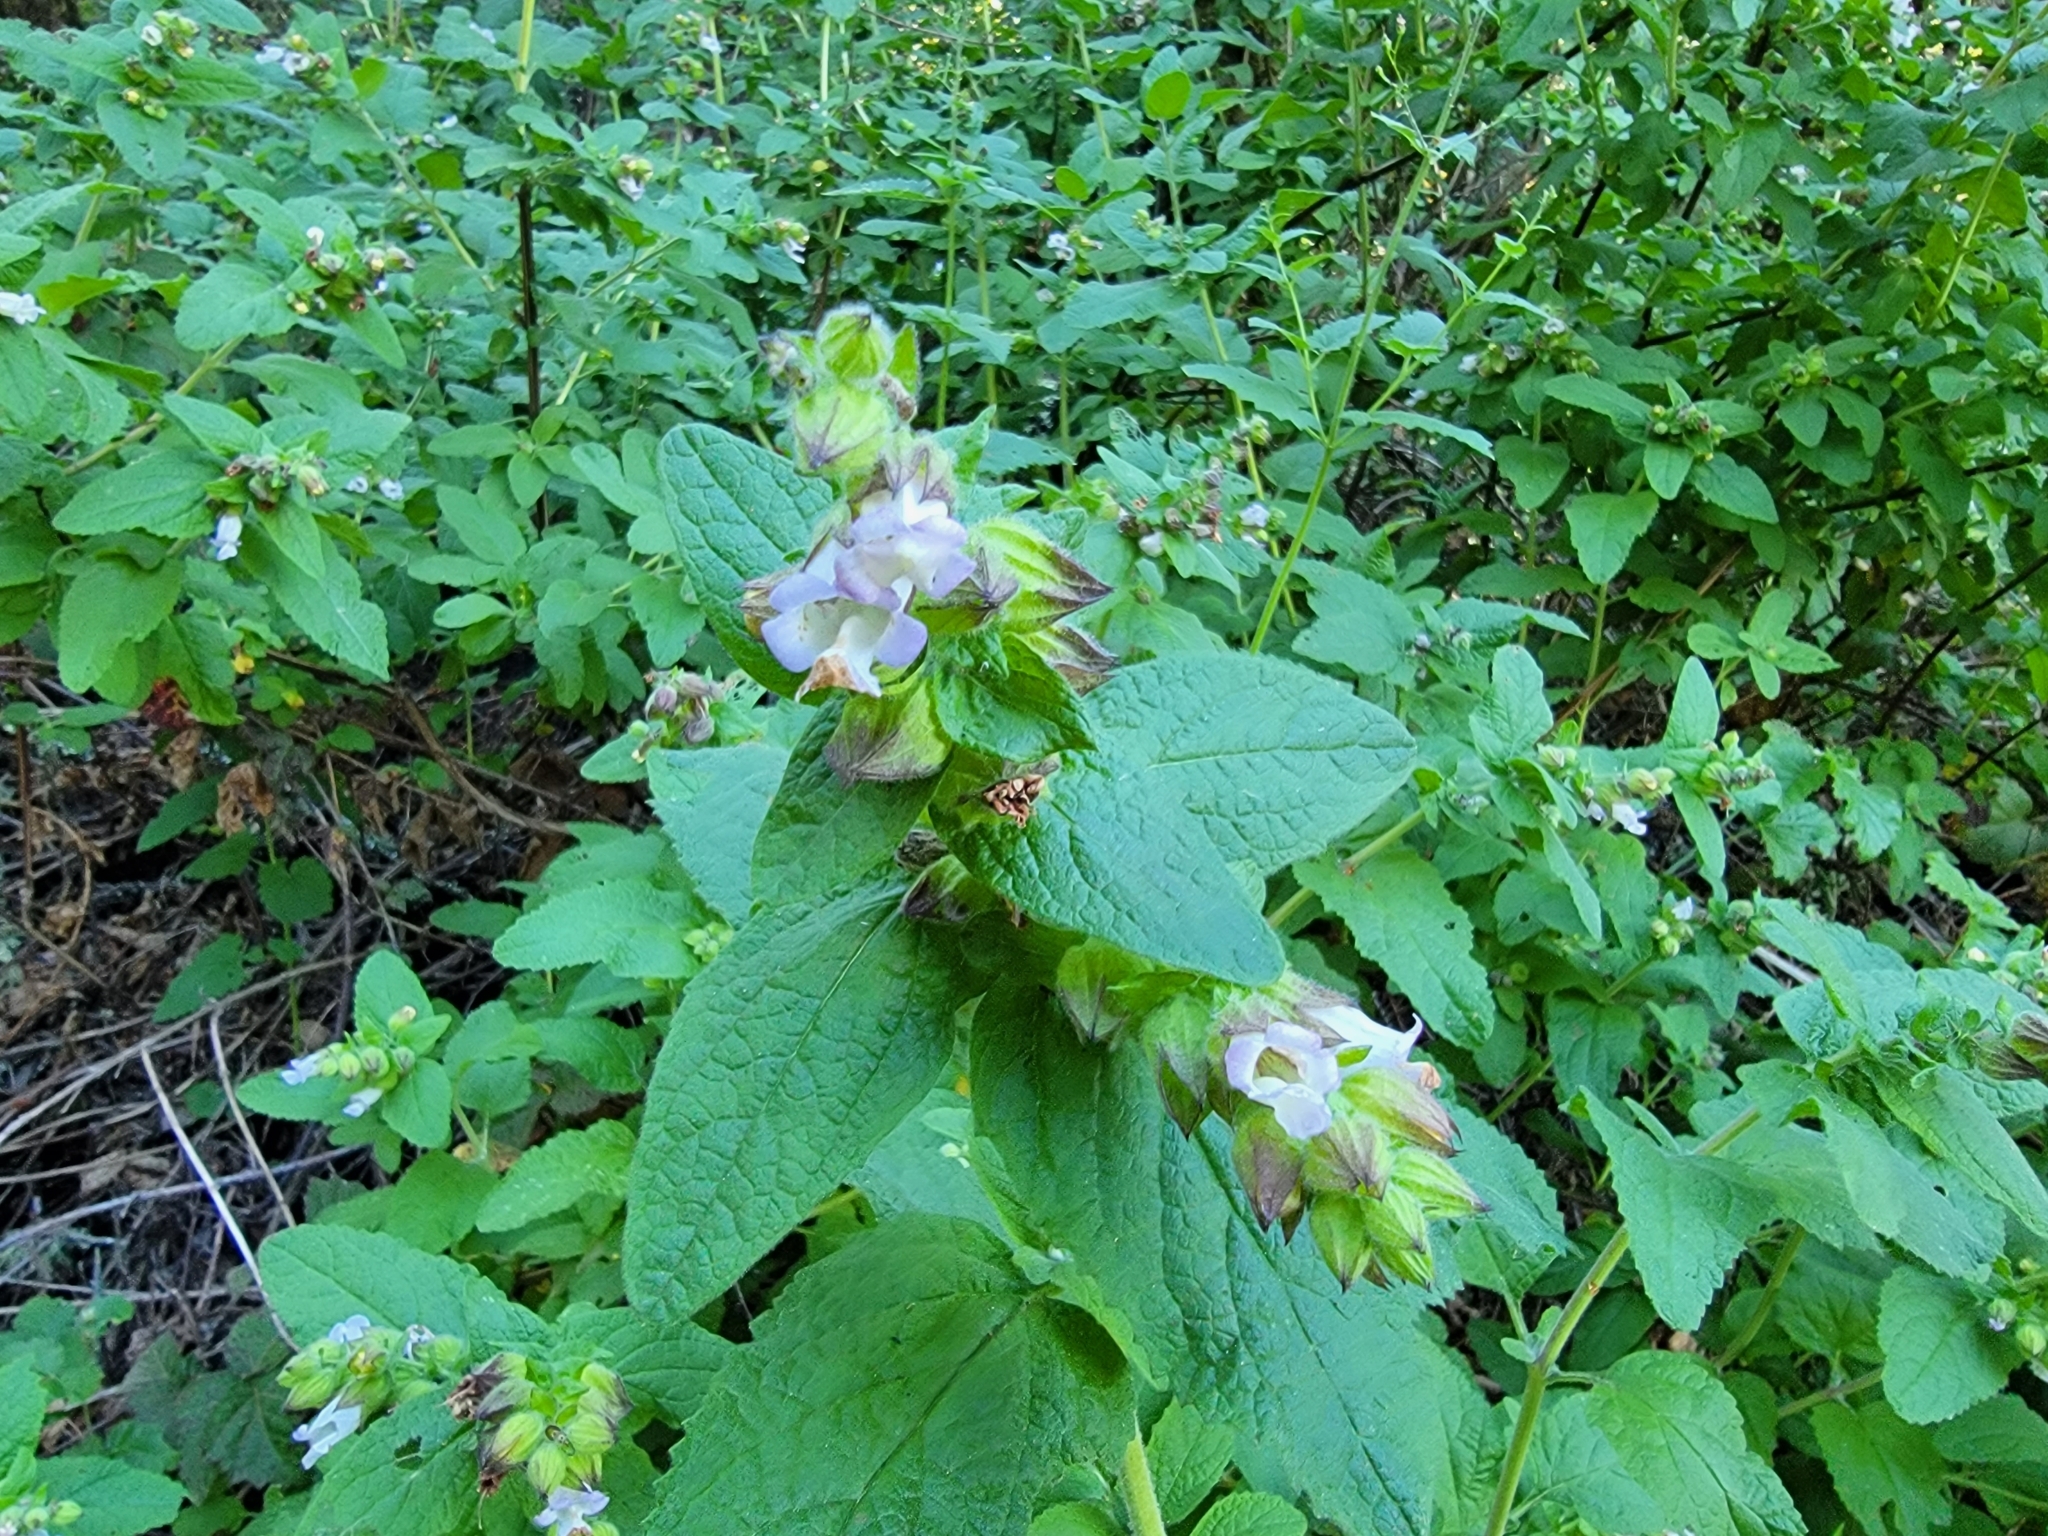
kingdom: Plantae
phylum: Tracheophyta
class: Magnoliopsida
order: Lamiales
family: Lamiaceae
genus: Lepechinia
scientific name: Lepechinia calycina
